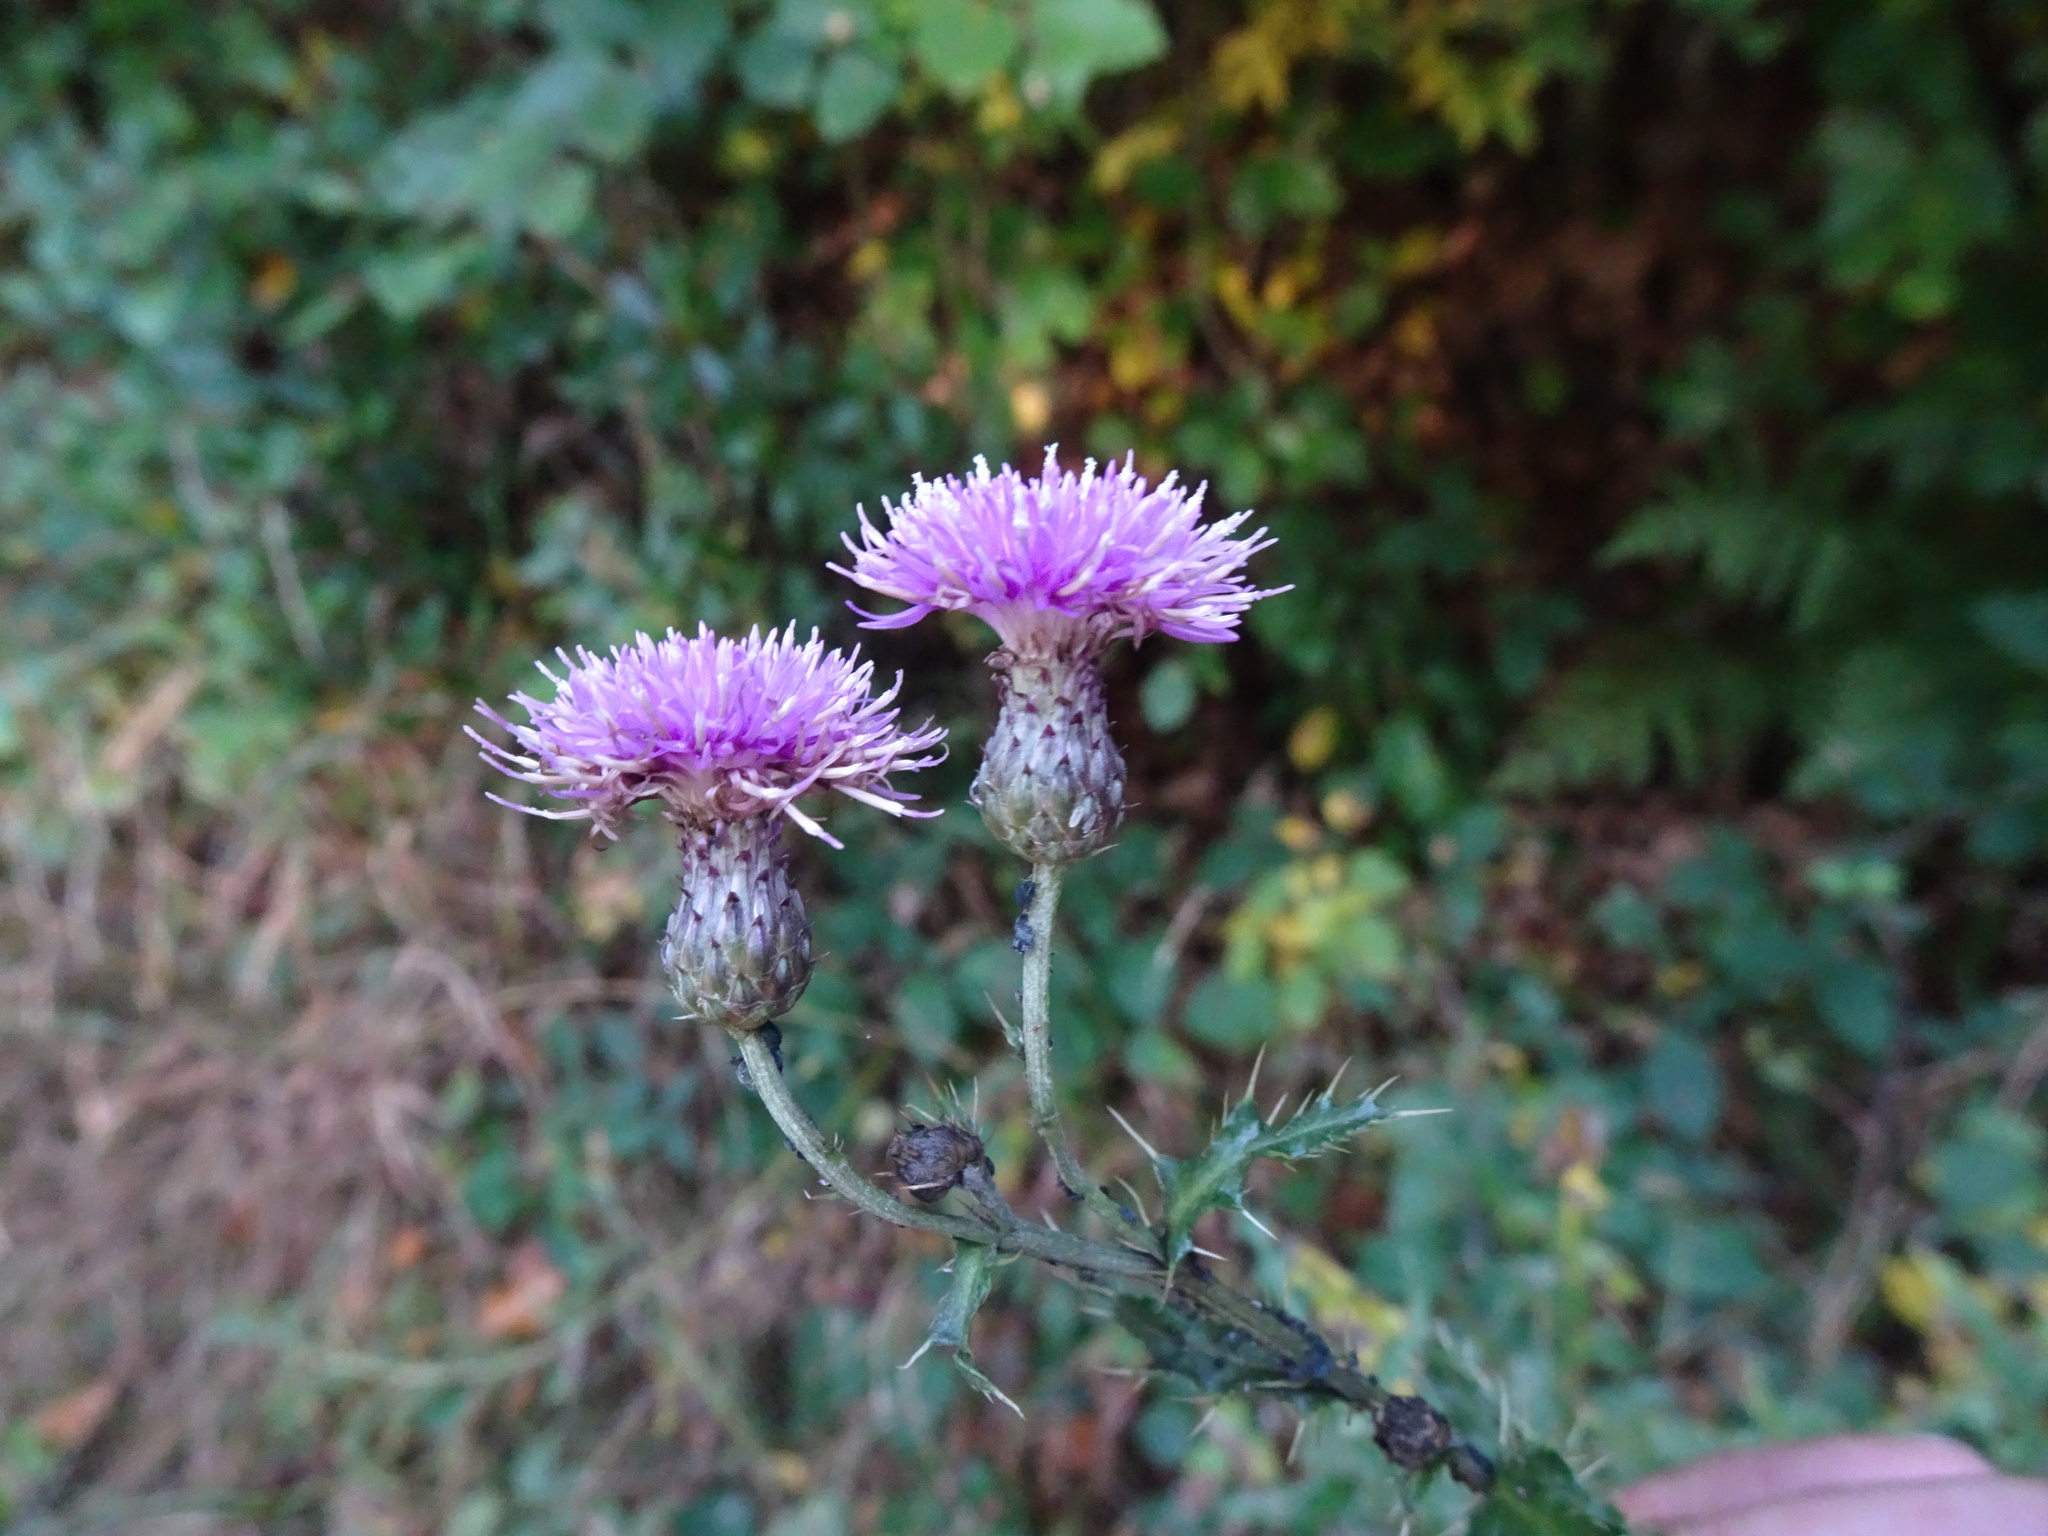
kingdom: Plantae
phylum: Tracheophyta
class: Magnoliopsida
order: Asterales
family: Asteraceae
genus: Cirsium
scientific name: Cirsium palustre
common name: Marsh thistle
